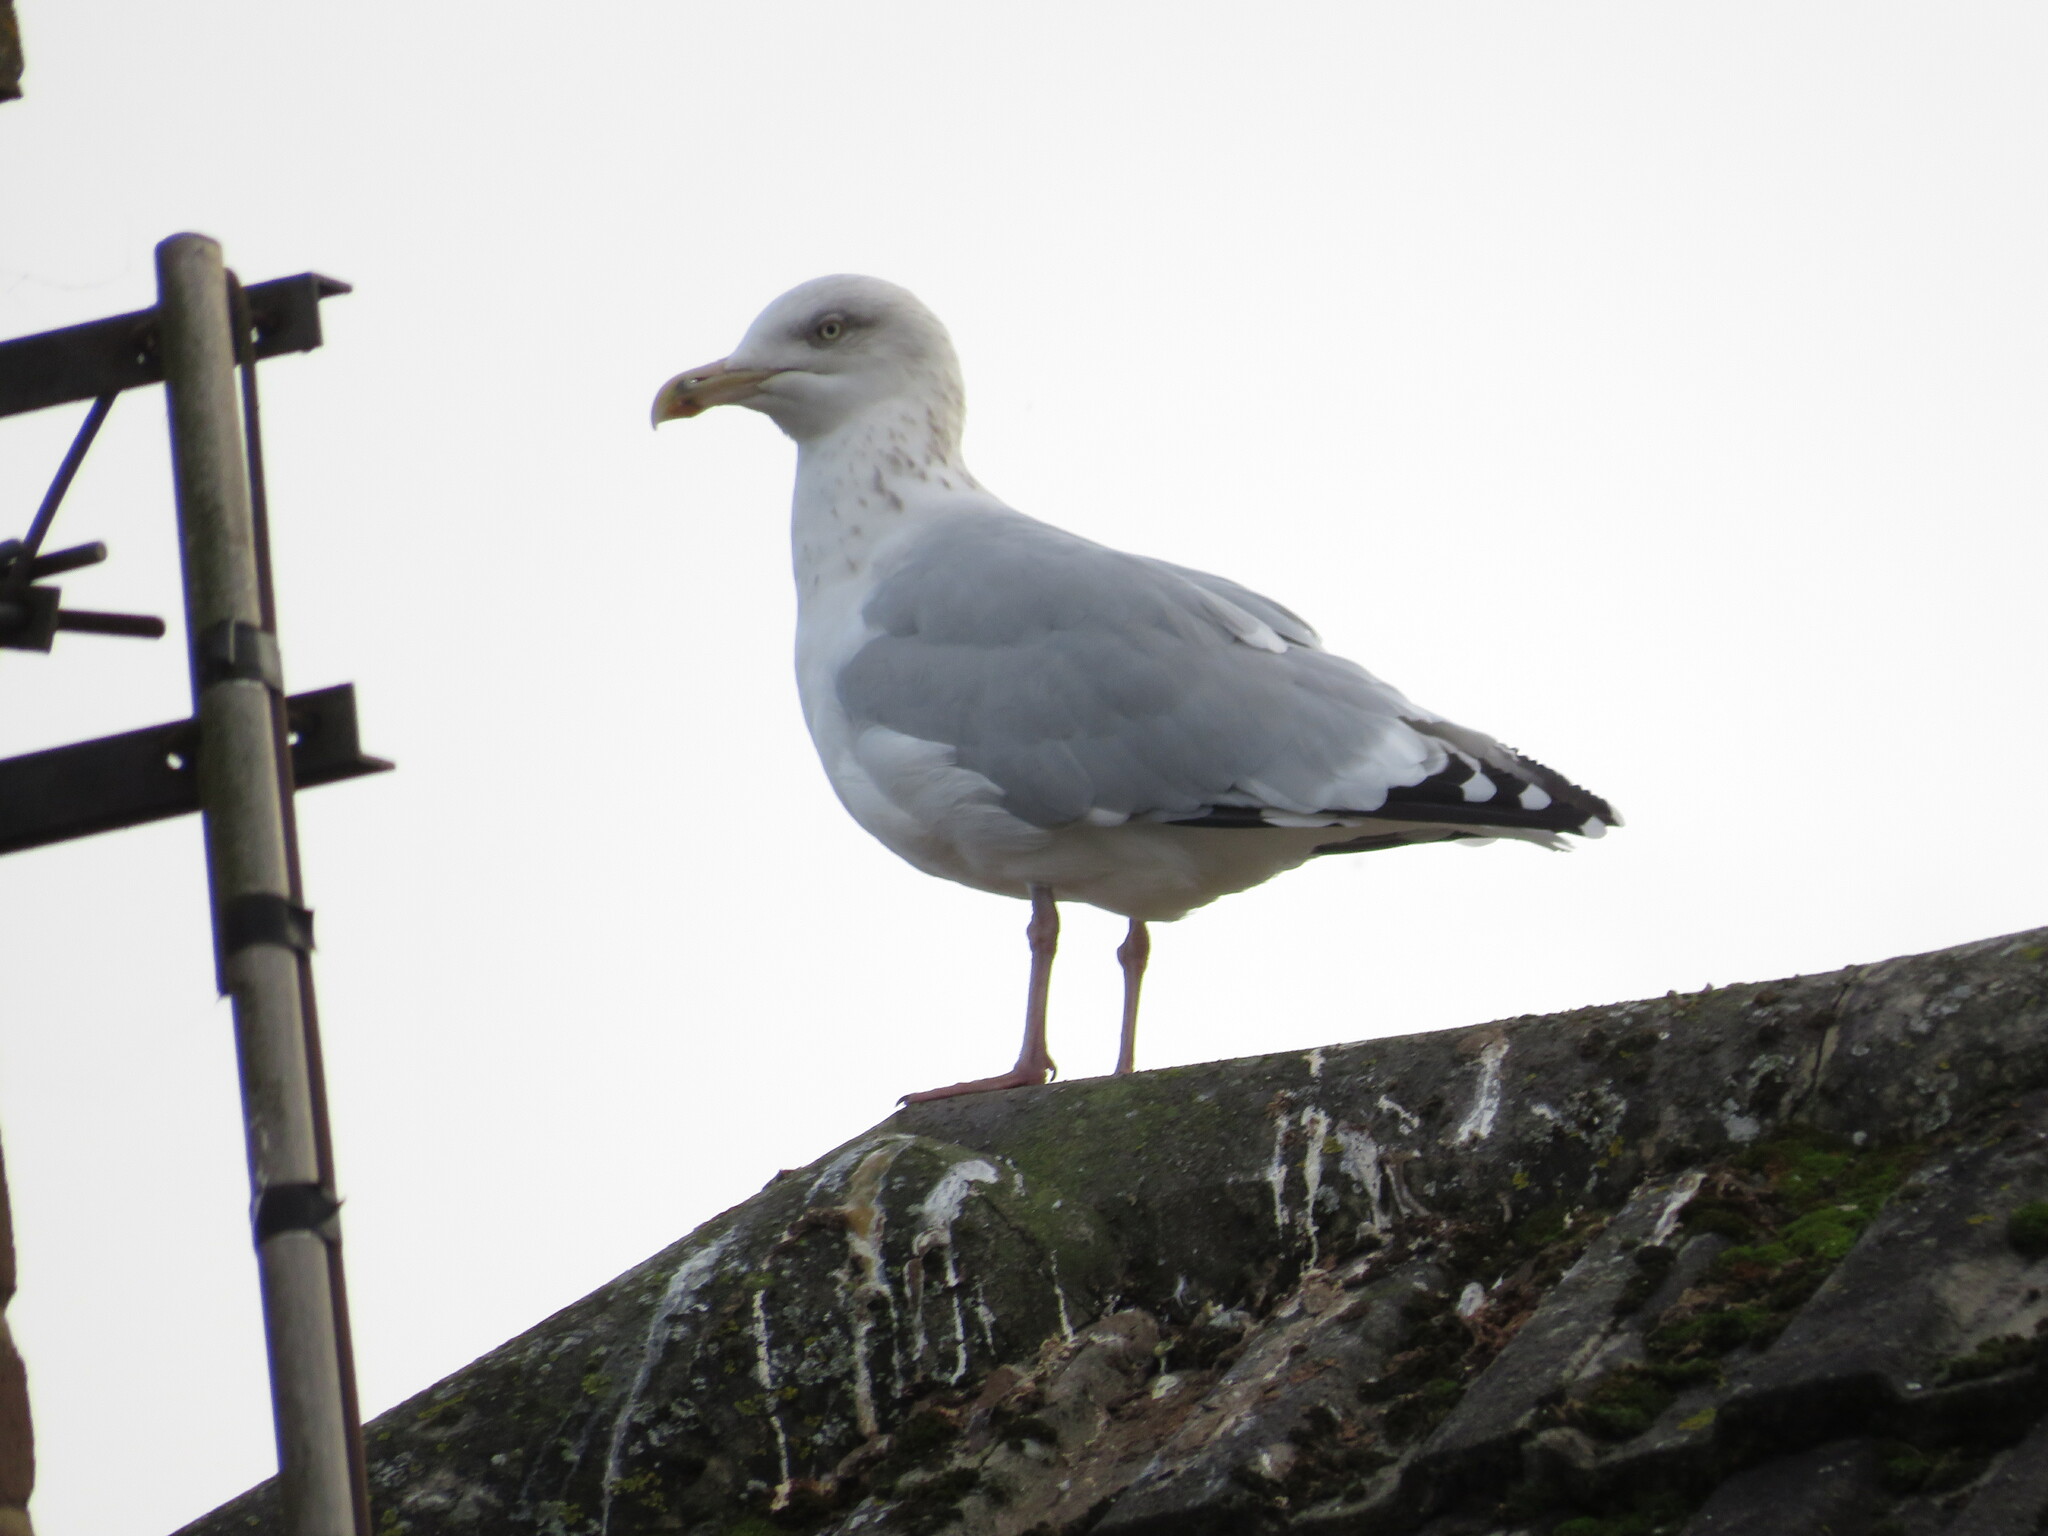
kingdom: Animalia
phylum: Chordata
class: Aves
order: Charadriiformes
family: Laridae
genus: Larus
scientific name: Larus argentatus
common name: Herring gull
